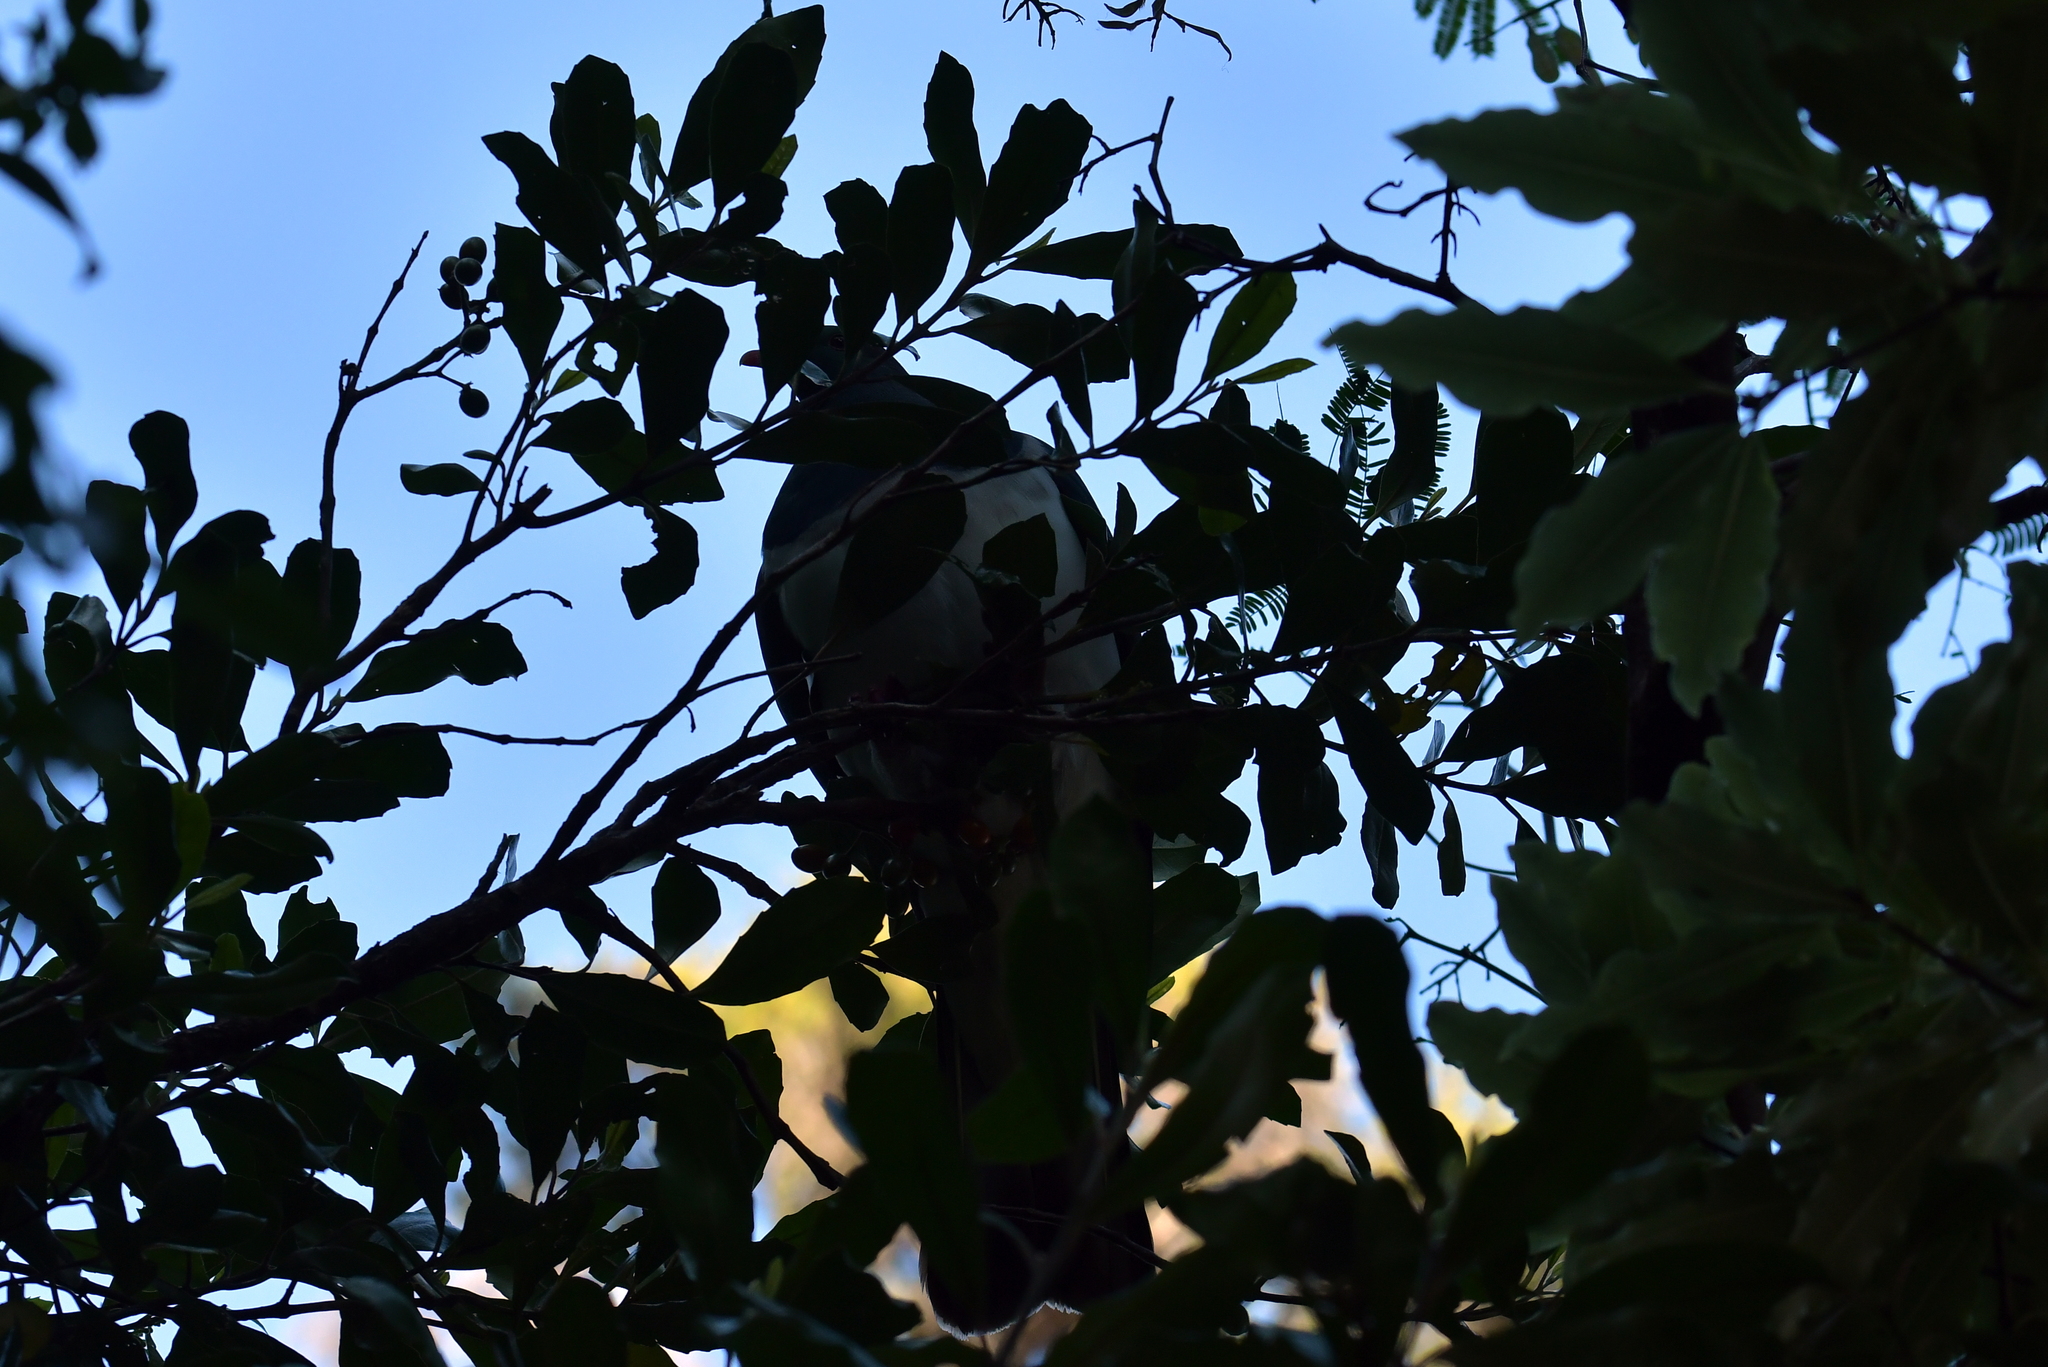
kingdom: Animalia
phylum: Chordata
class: Aves
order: Columbiformes
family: Columbidae
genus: Hemiphaga
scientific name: Hemiphaga novaeseelandiae
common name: New zealand pigeon
